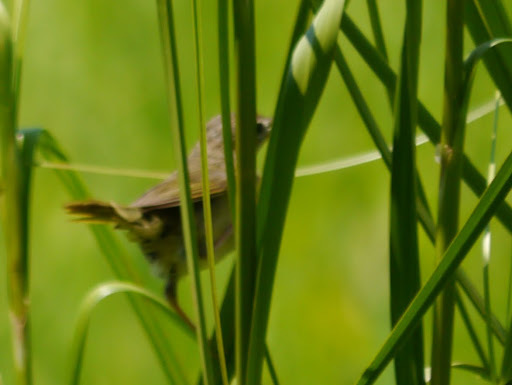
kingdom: Animalia
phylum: Chordata
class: Aves
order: Passeriformes
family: Parulidae
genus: Geothlypis
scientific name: Geothlypis trichas
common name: Common yellowthroat
